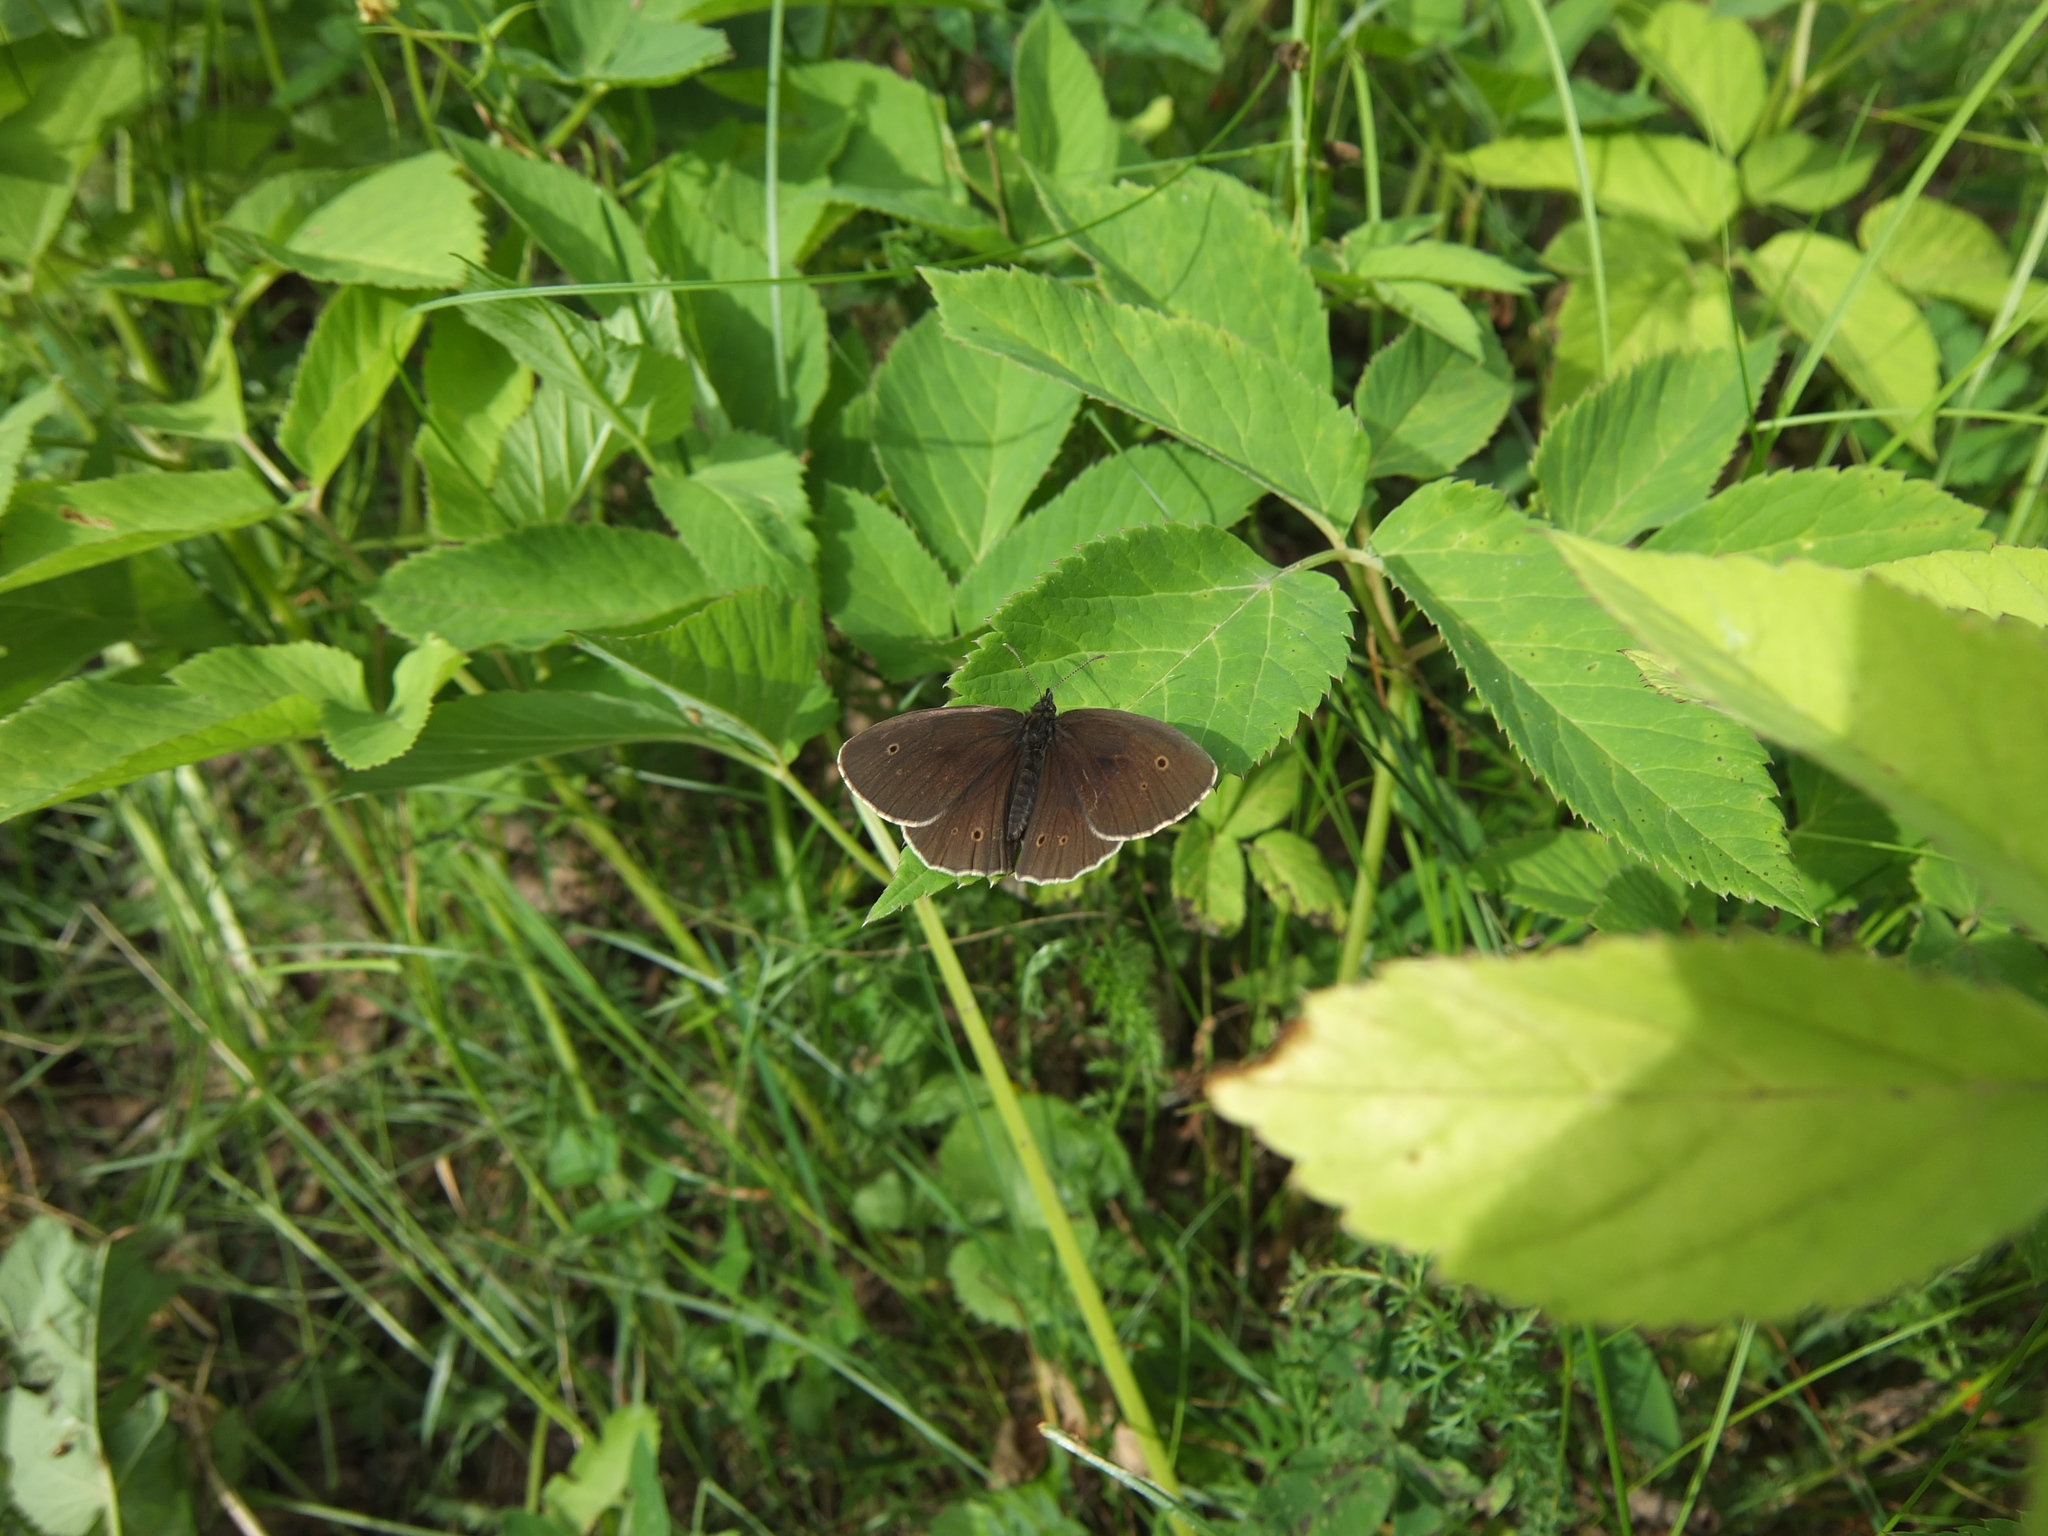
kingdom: Animalia
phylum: Arthropoda
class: Insecta
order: Lepidoptera
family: Nymphalidae
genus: Aphantopus
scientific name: Aphantopus hyperantus
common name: Ringlet
